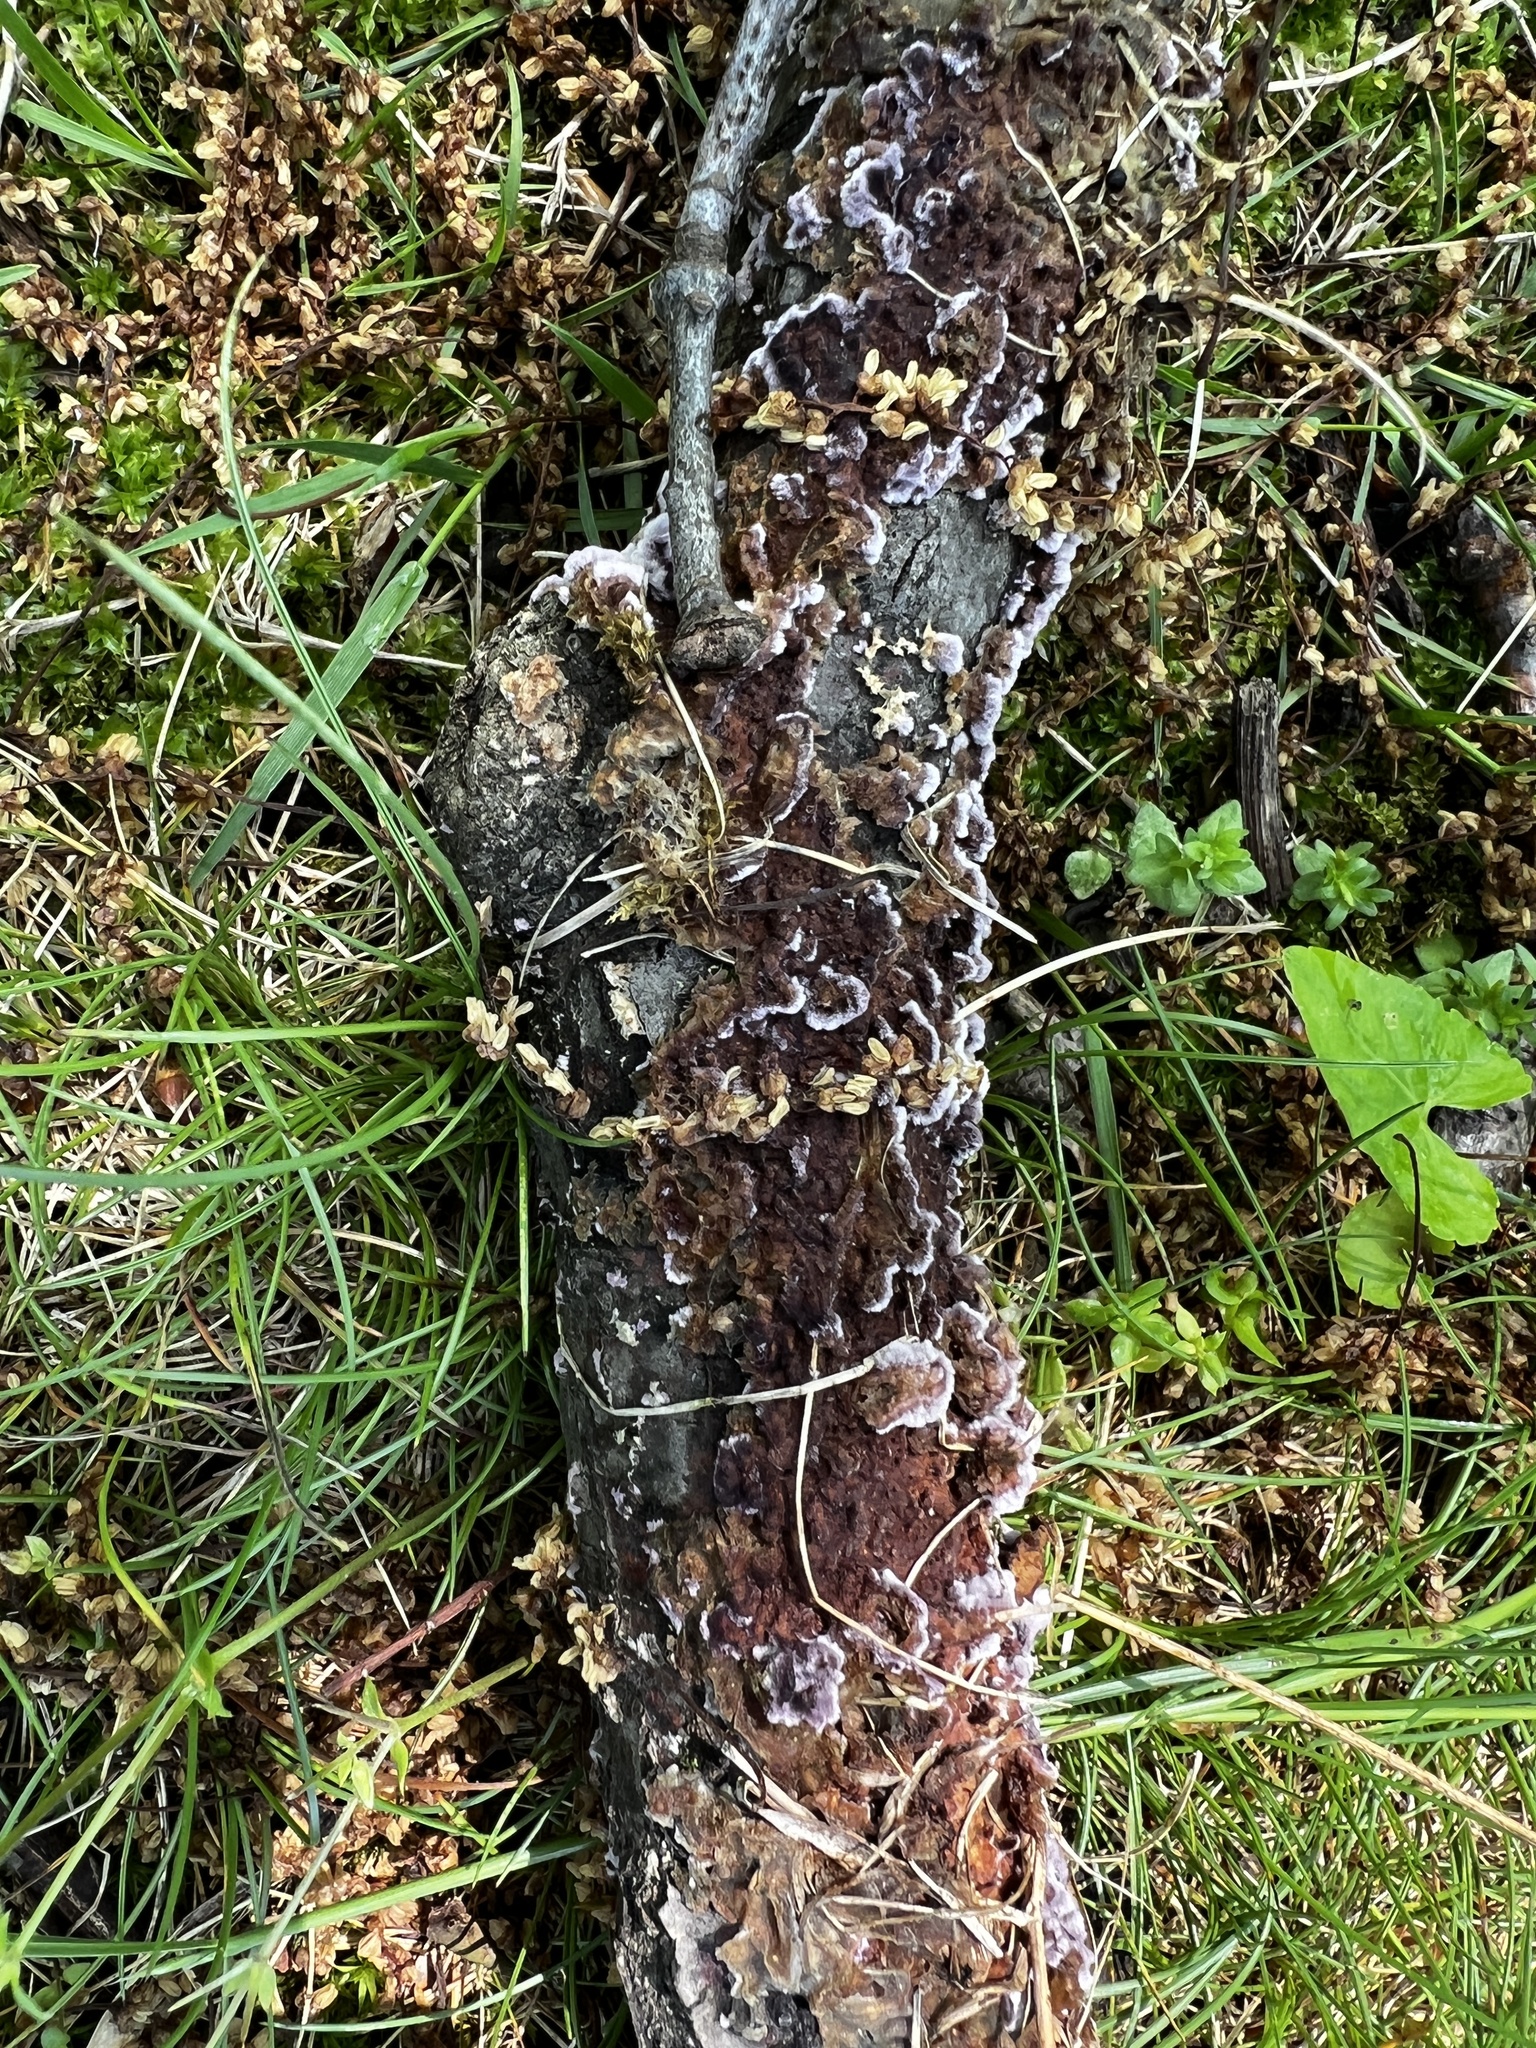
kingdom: Fungi
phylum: Basidiomycota
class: Agaricomycetes
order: Agaricales
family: Cyphellaceae
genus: Chondrostereum
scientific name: Chondrostereum purpureum
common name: Silver leaf disease
